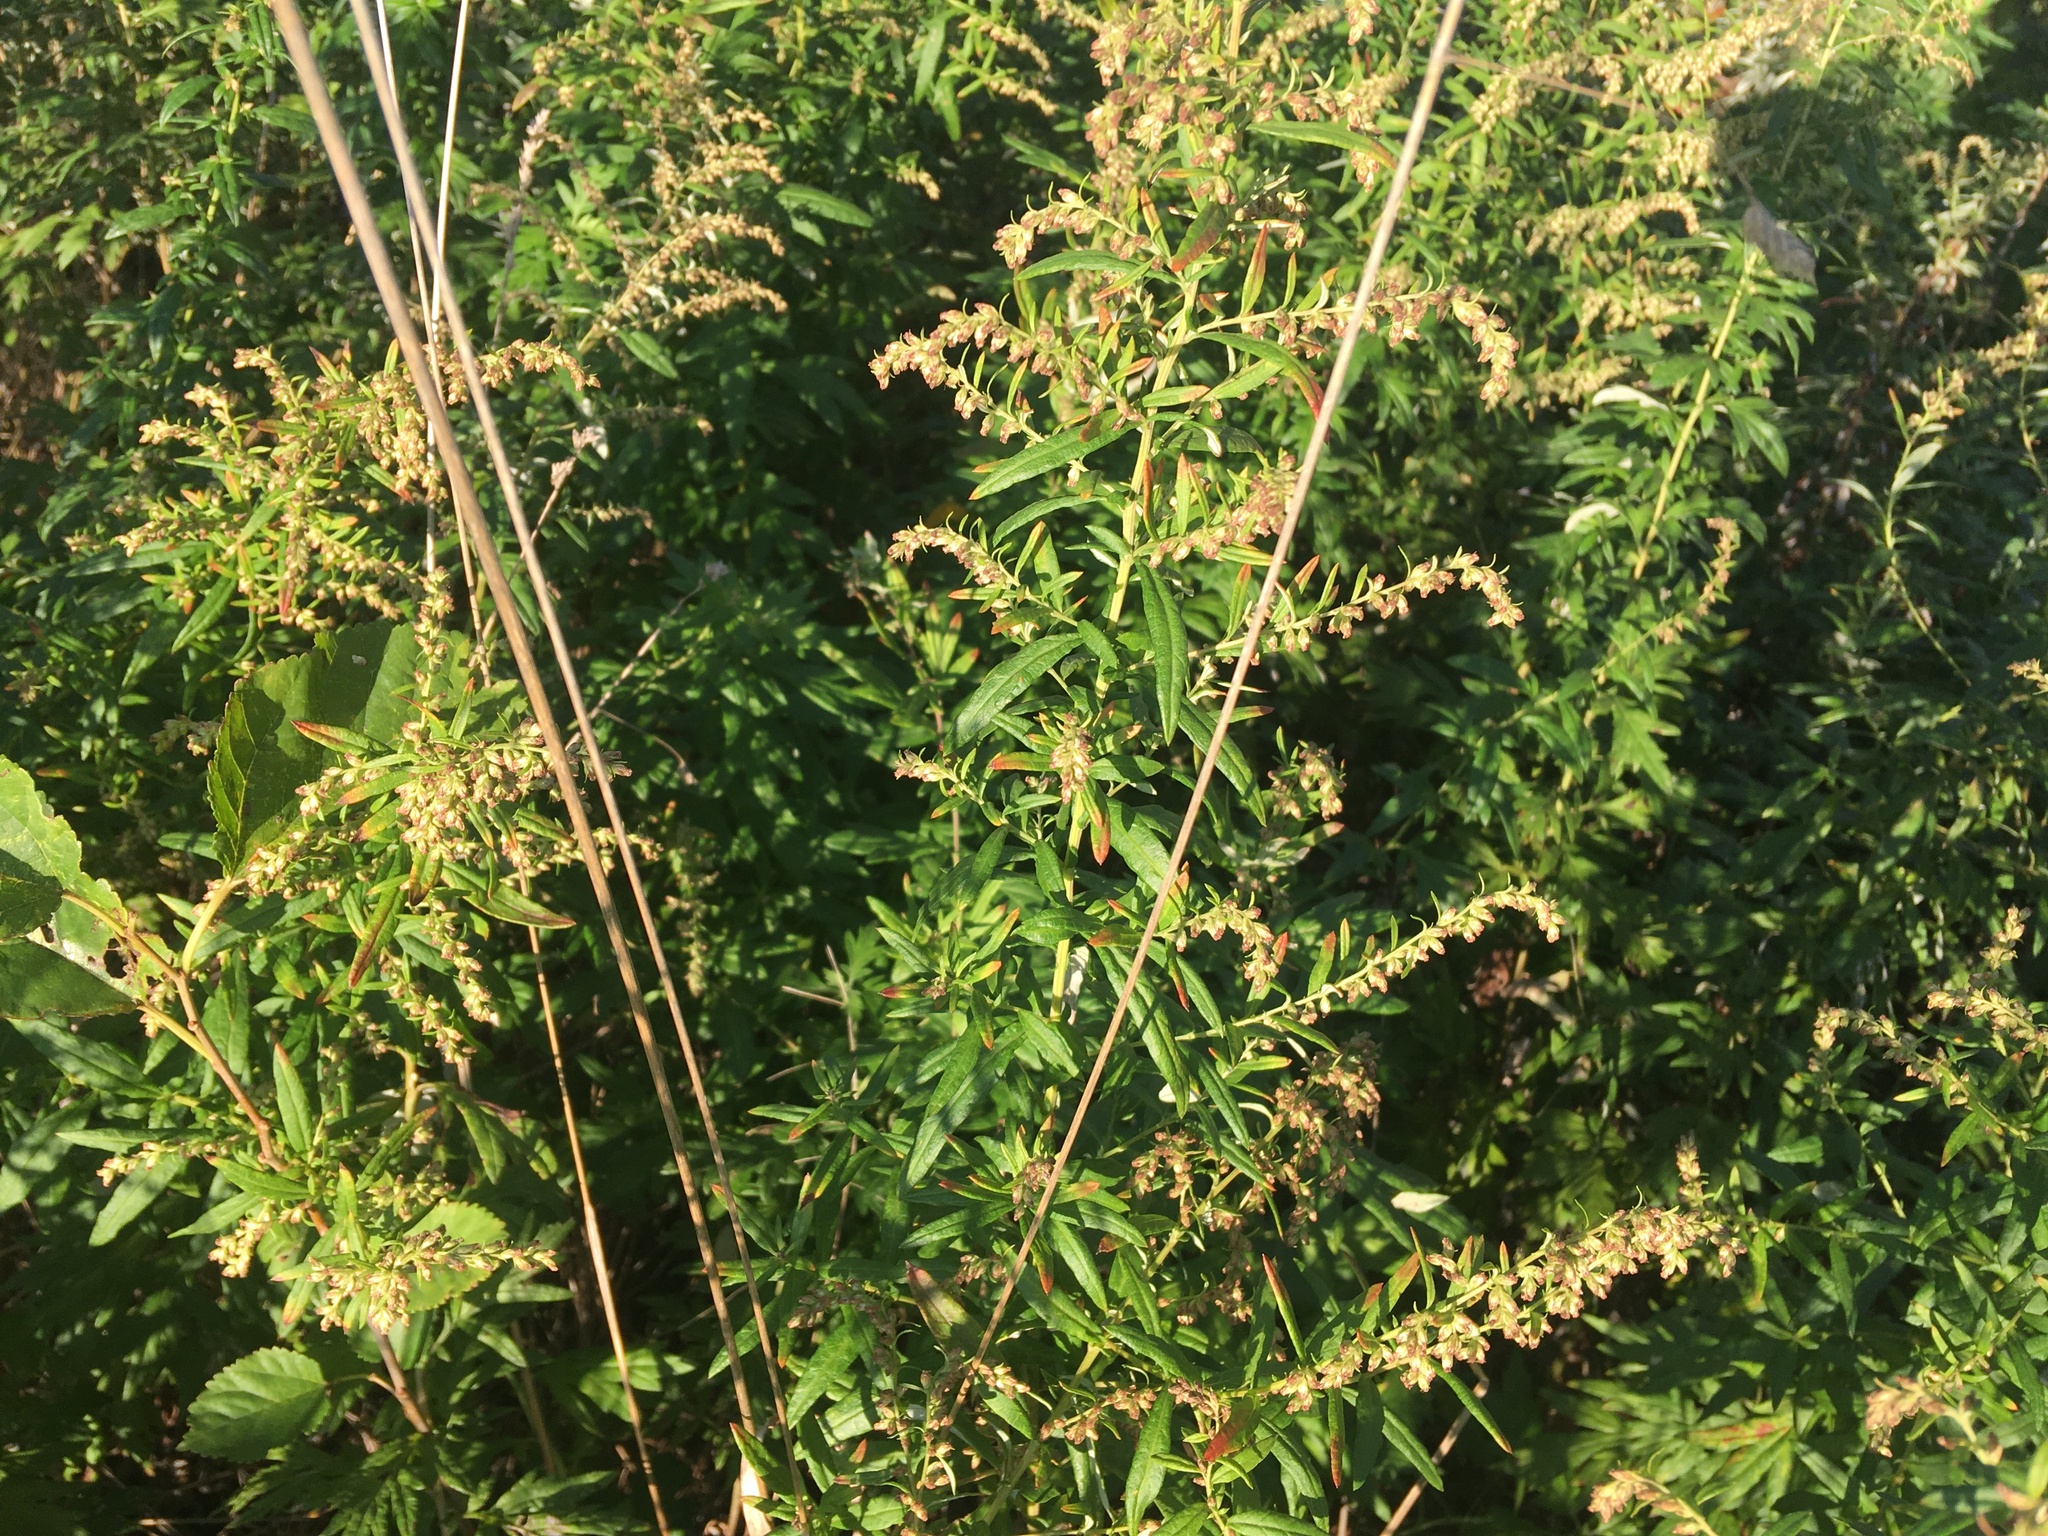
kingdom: Plantae
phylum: Tracheophyta
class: Magnoliopsida
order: Asterales
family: Asteraceae
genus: Artemisia
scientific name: Artemisia vulgaris
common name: Mugwort
